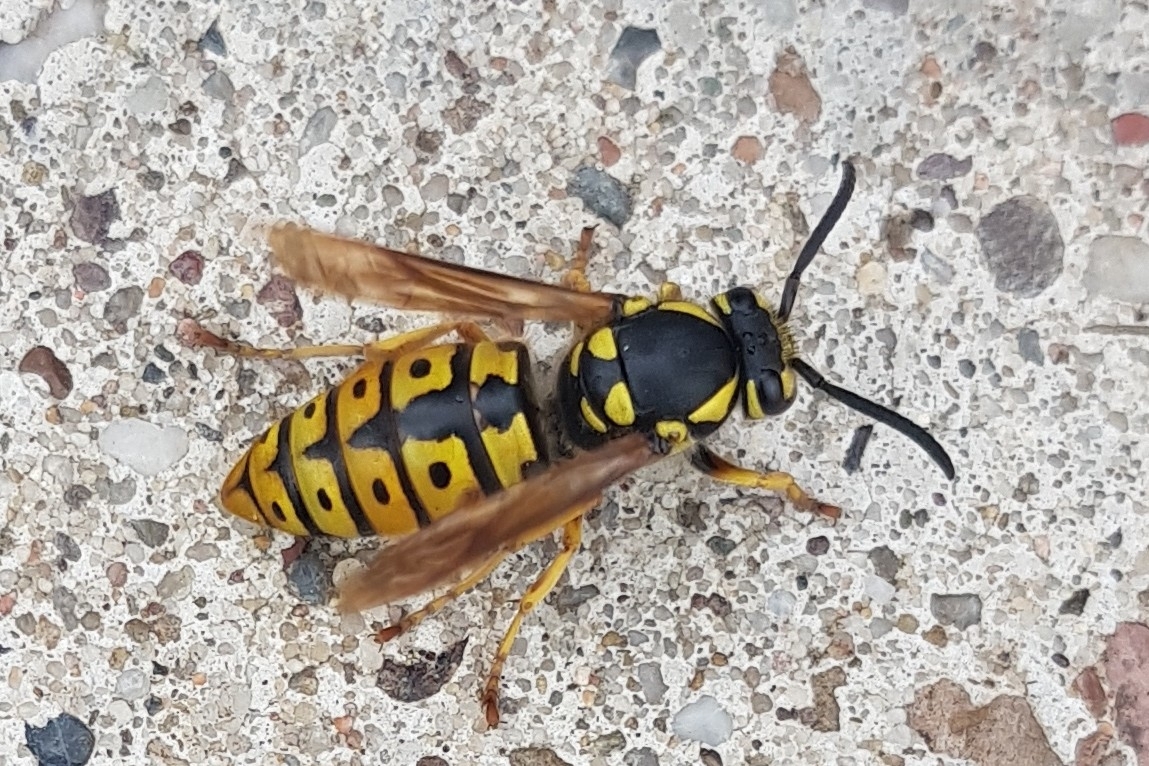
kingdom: Animalia
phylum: Arthropoda
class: Insecta
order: Hymenoptera
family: Vespidae
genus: Vespula
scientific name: Vespula germanica
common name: German wasp
